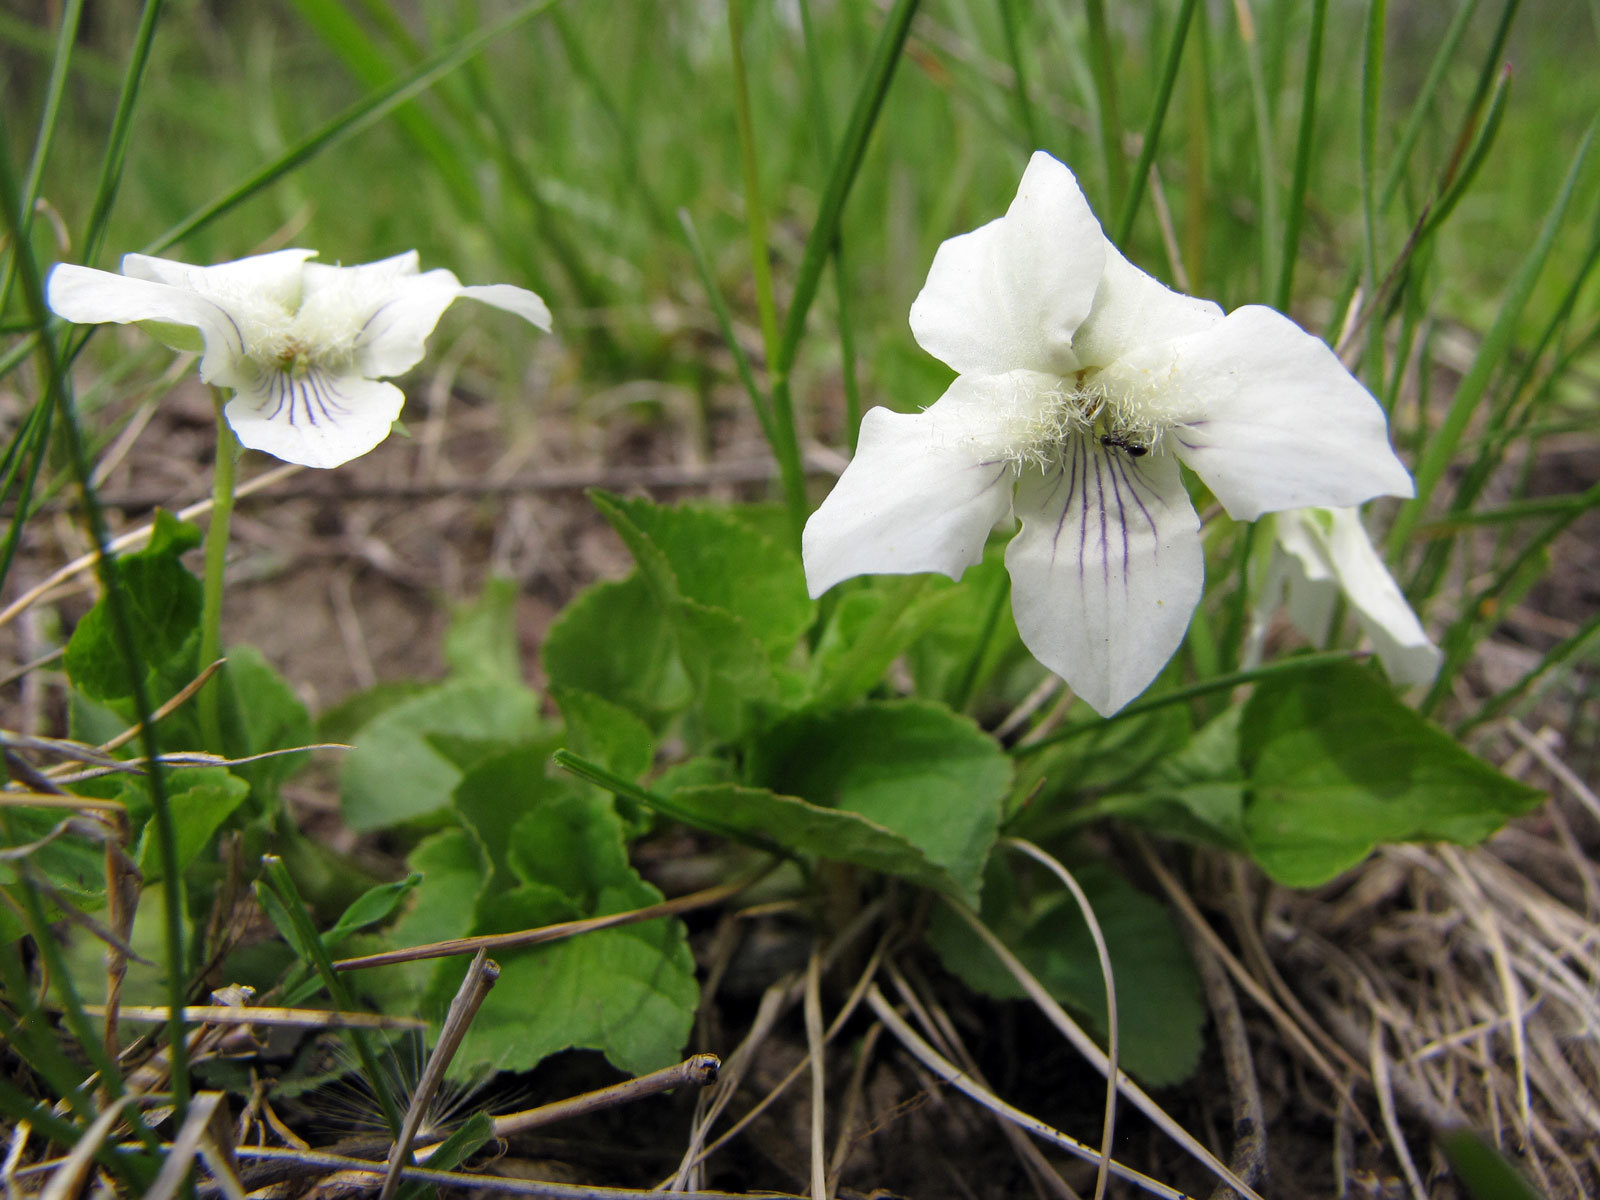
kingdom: Plantae
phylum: Tracheophyta
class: Magnoliopsida
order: Malpighiales
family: Violaceae
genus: Viola
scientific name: Viola sororia
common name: Dooryard violet
